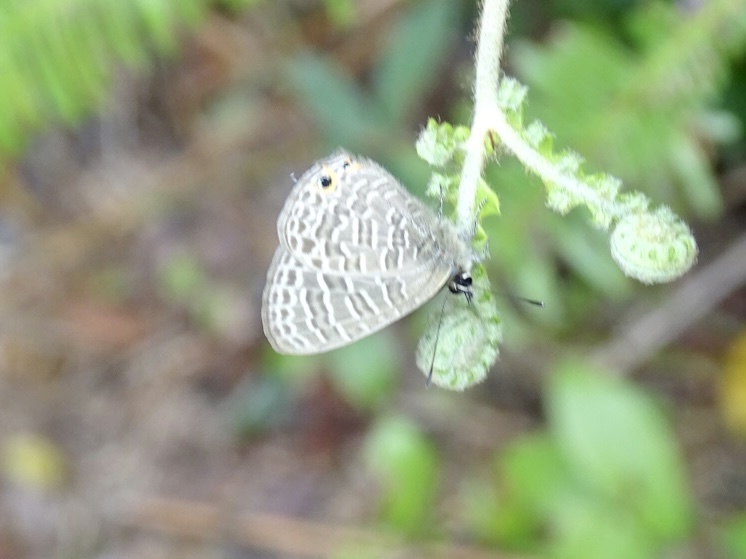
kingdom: Animalia
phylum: Arthropoda
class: Insecta
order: Lepidoptera
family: Lycaenidae
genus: Nacaduba
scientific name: Nacaduba kurava
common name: Transparent 6-line blue
